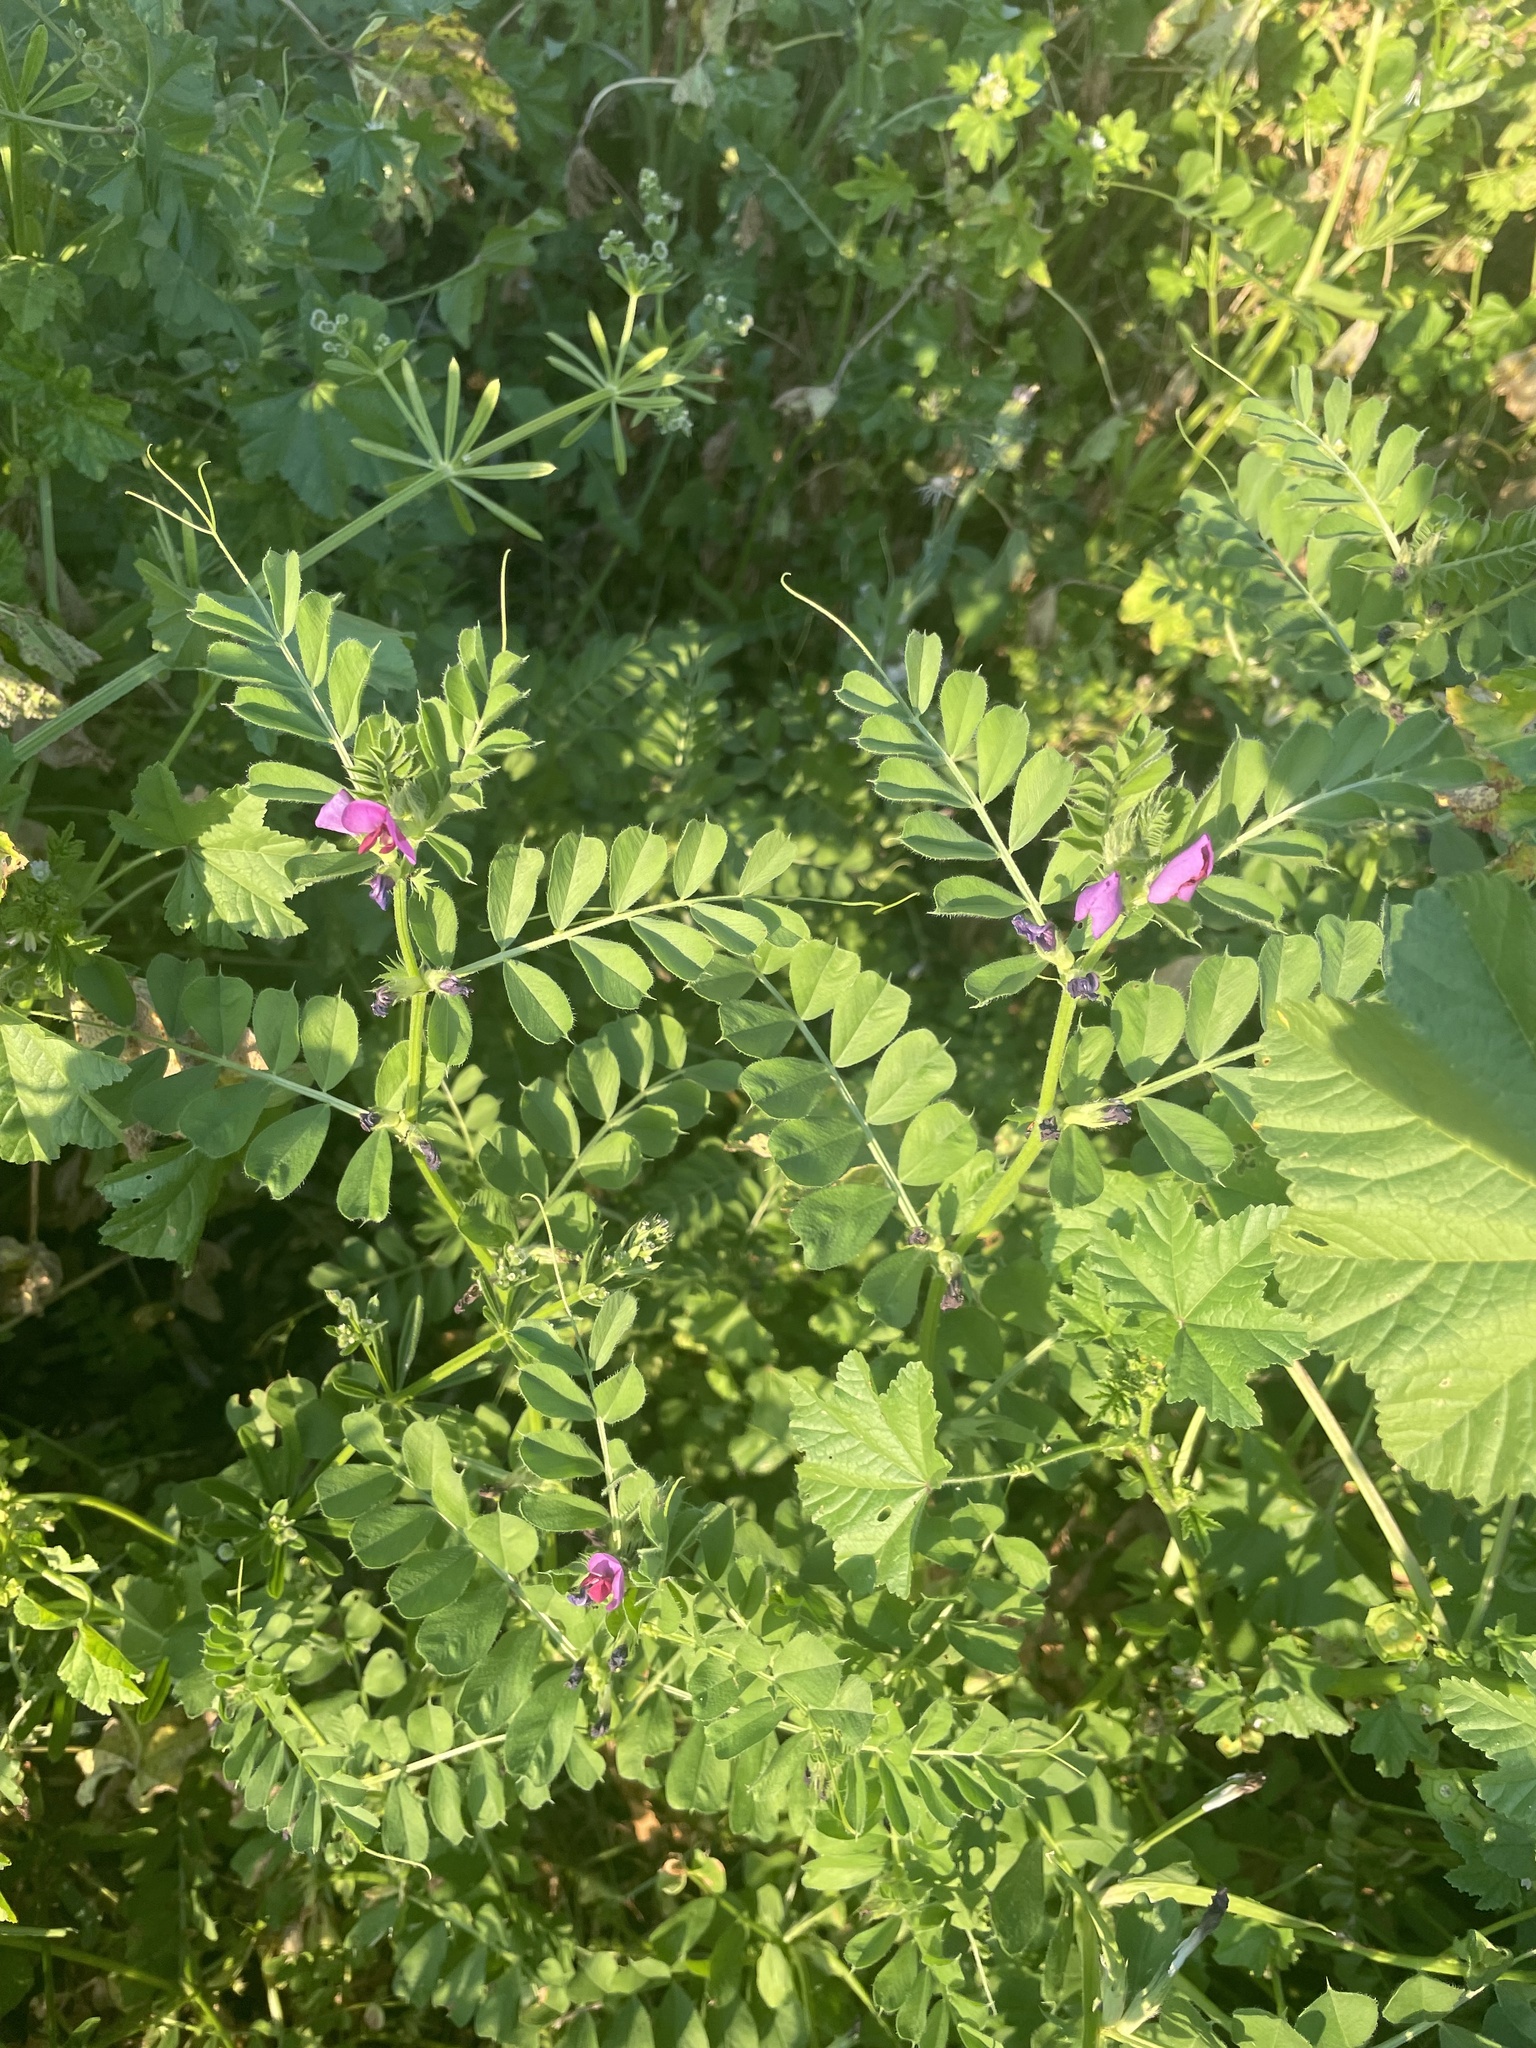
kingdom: Plantae
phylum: Tracheophyta
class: Magnoliopsida
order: Fabales
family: Fabaceae
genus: Vicia
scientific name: Vicia sativa
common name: Garden vetch
